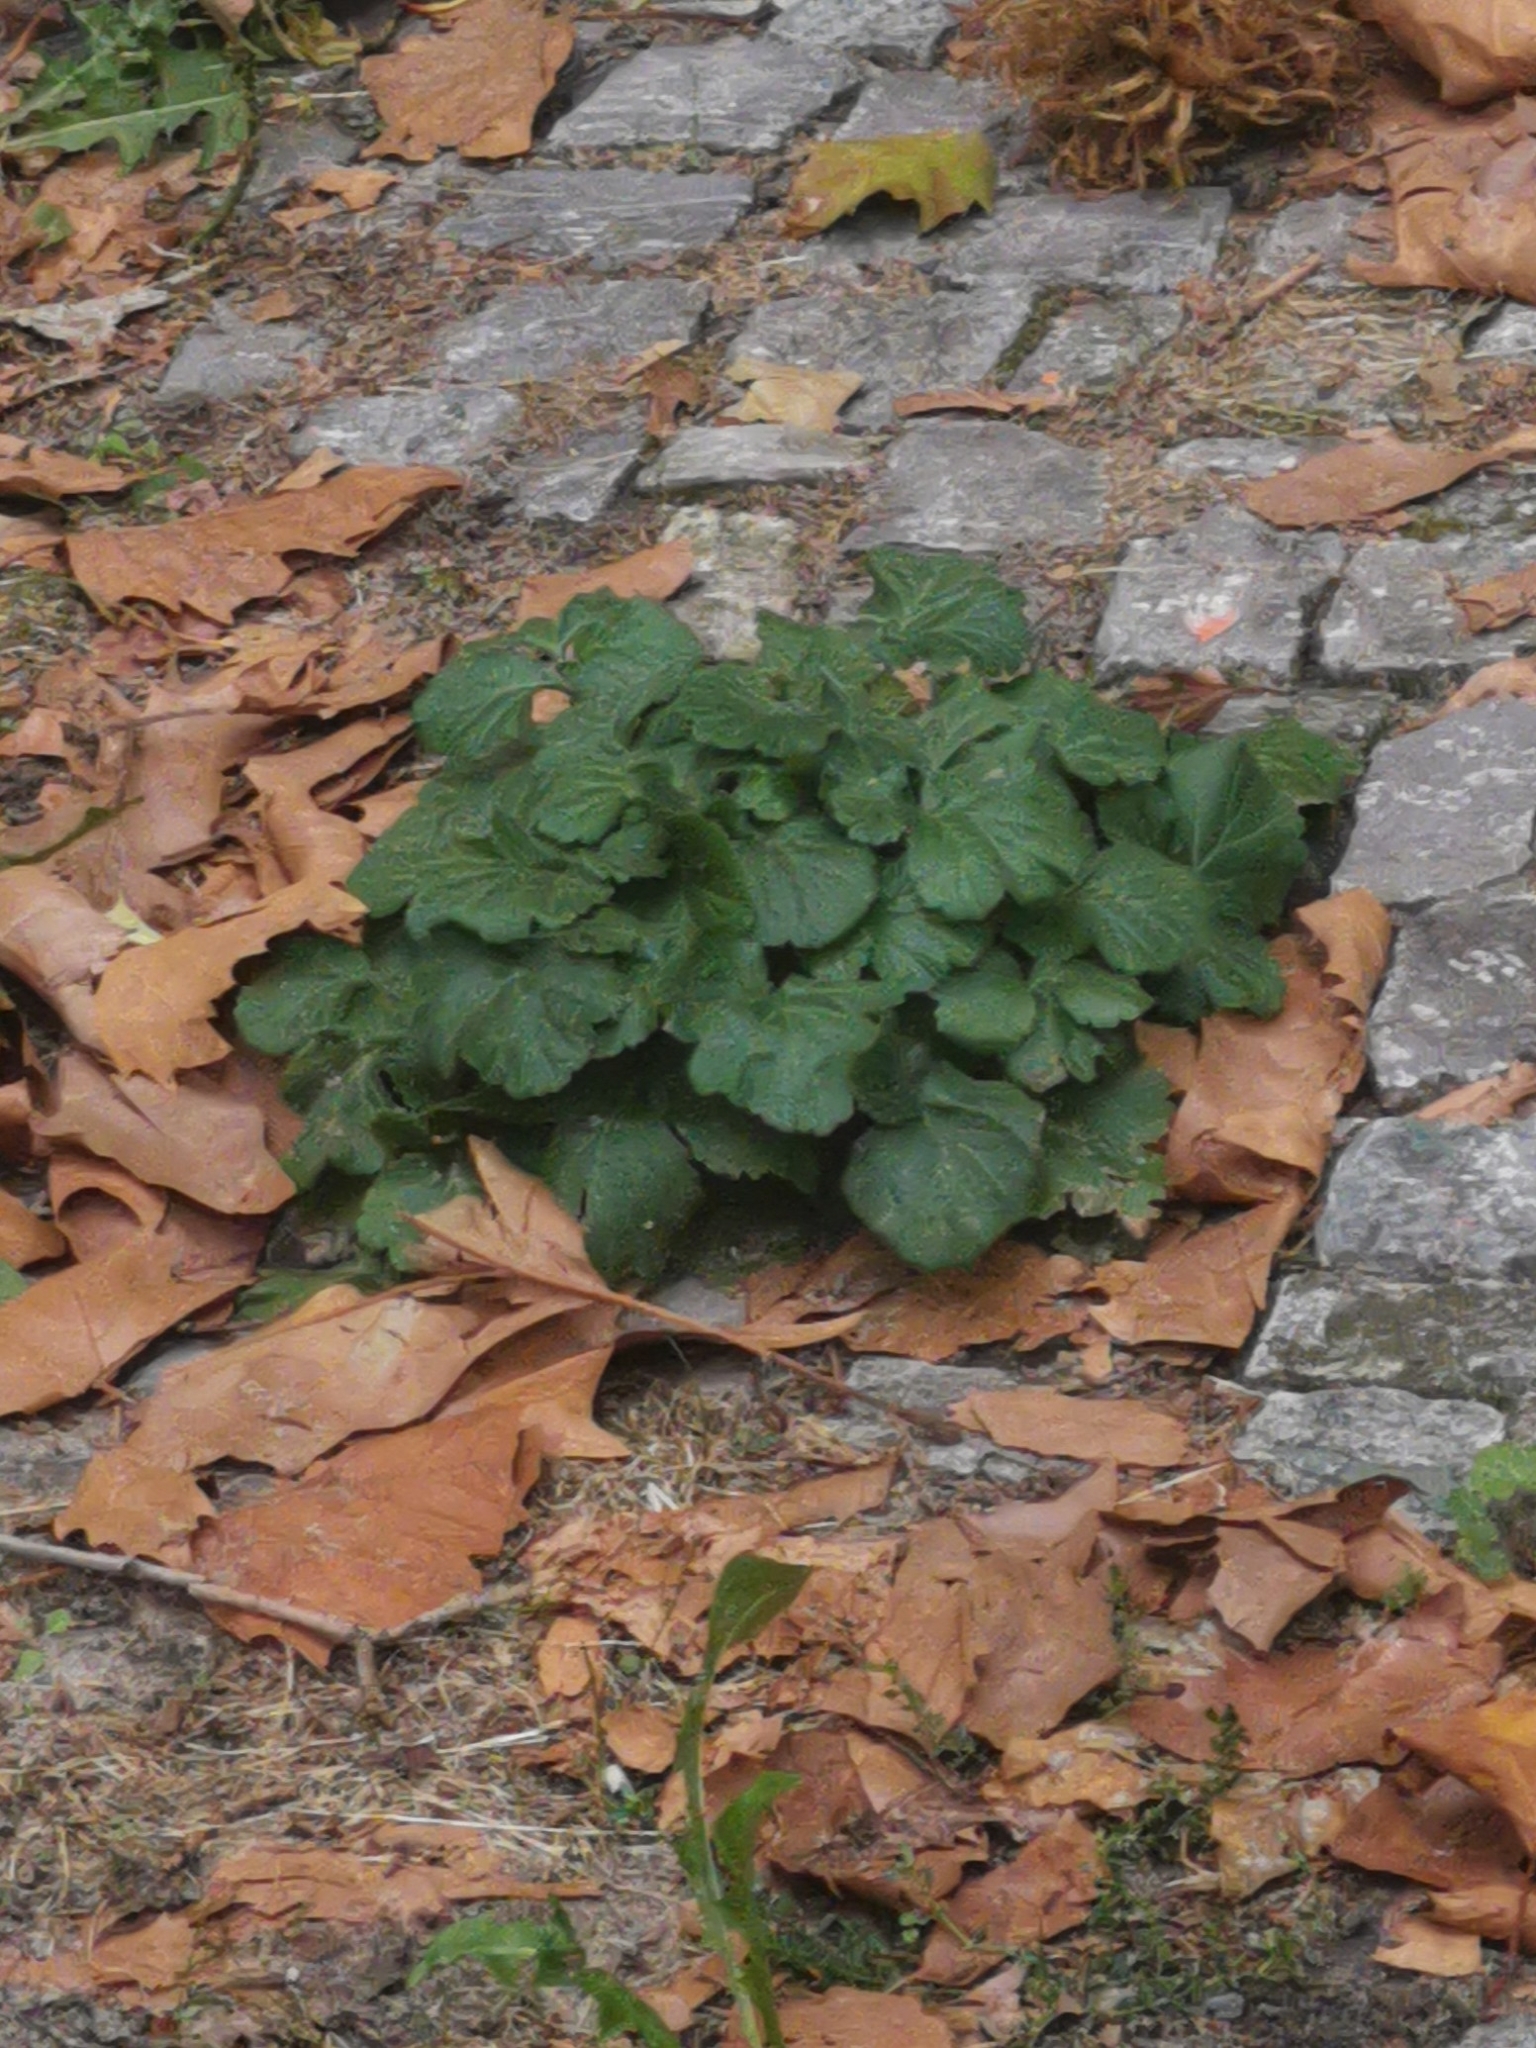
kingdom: Plantae
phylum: Tracheophyta
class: Magnoliopsida
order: Rosales
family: Rosaceae
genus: Geum
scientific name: Geum urbanum
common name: Wood avens
